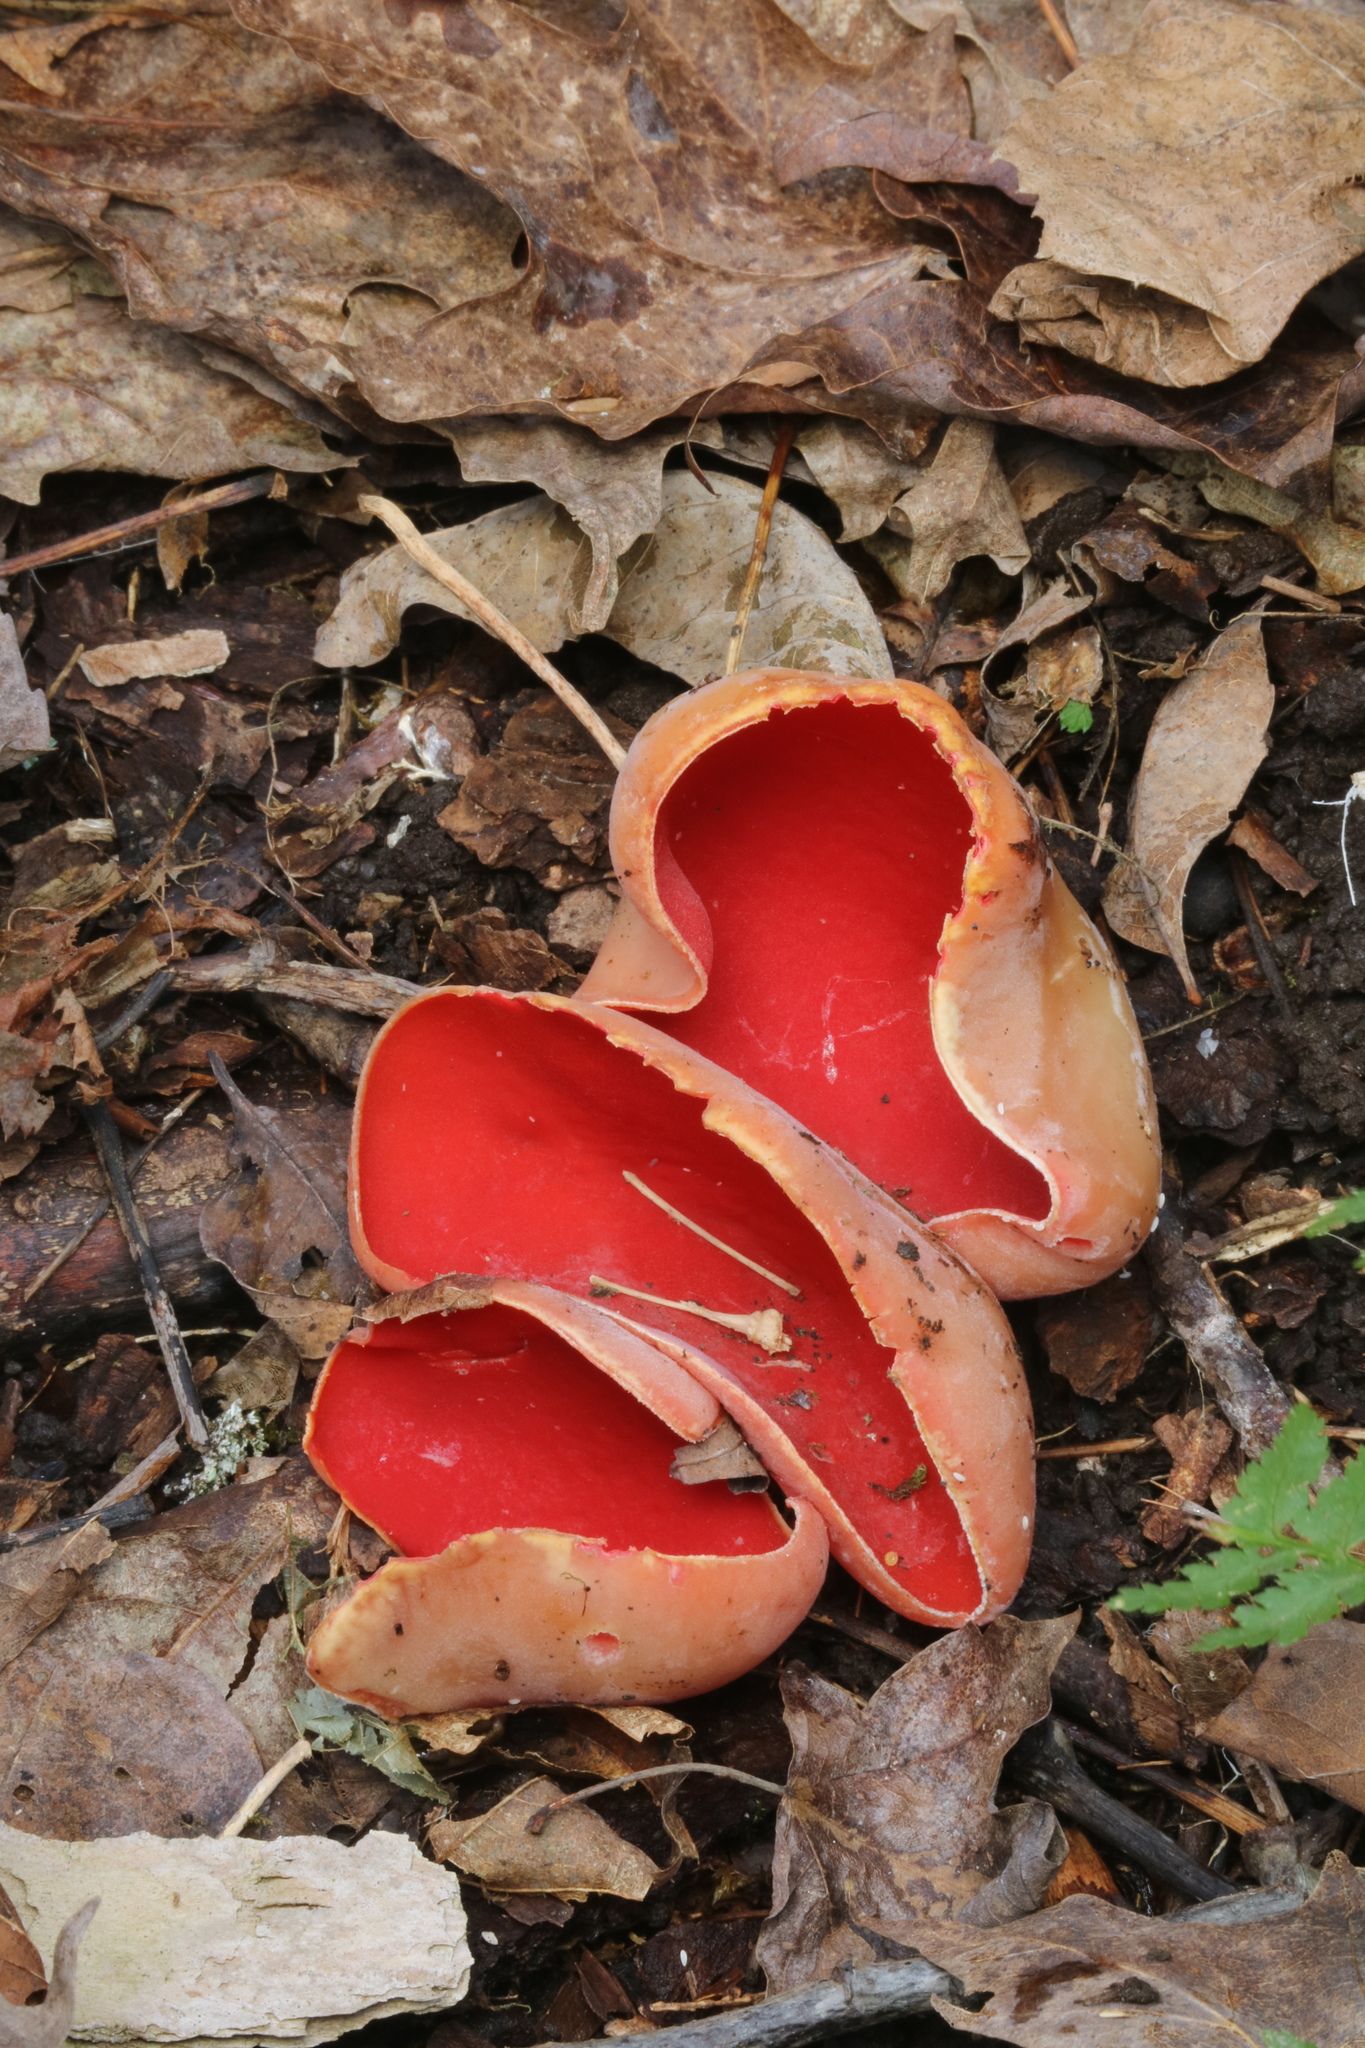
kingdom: Fungi
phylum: Ascomycota
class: Pezizomycetes
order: Pezizales
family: Sarcoscyphaceae
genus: Sarcoscypha
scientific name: Sarcoscypha austriaca
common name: Scarlet elfcup
